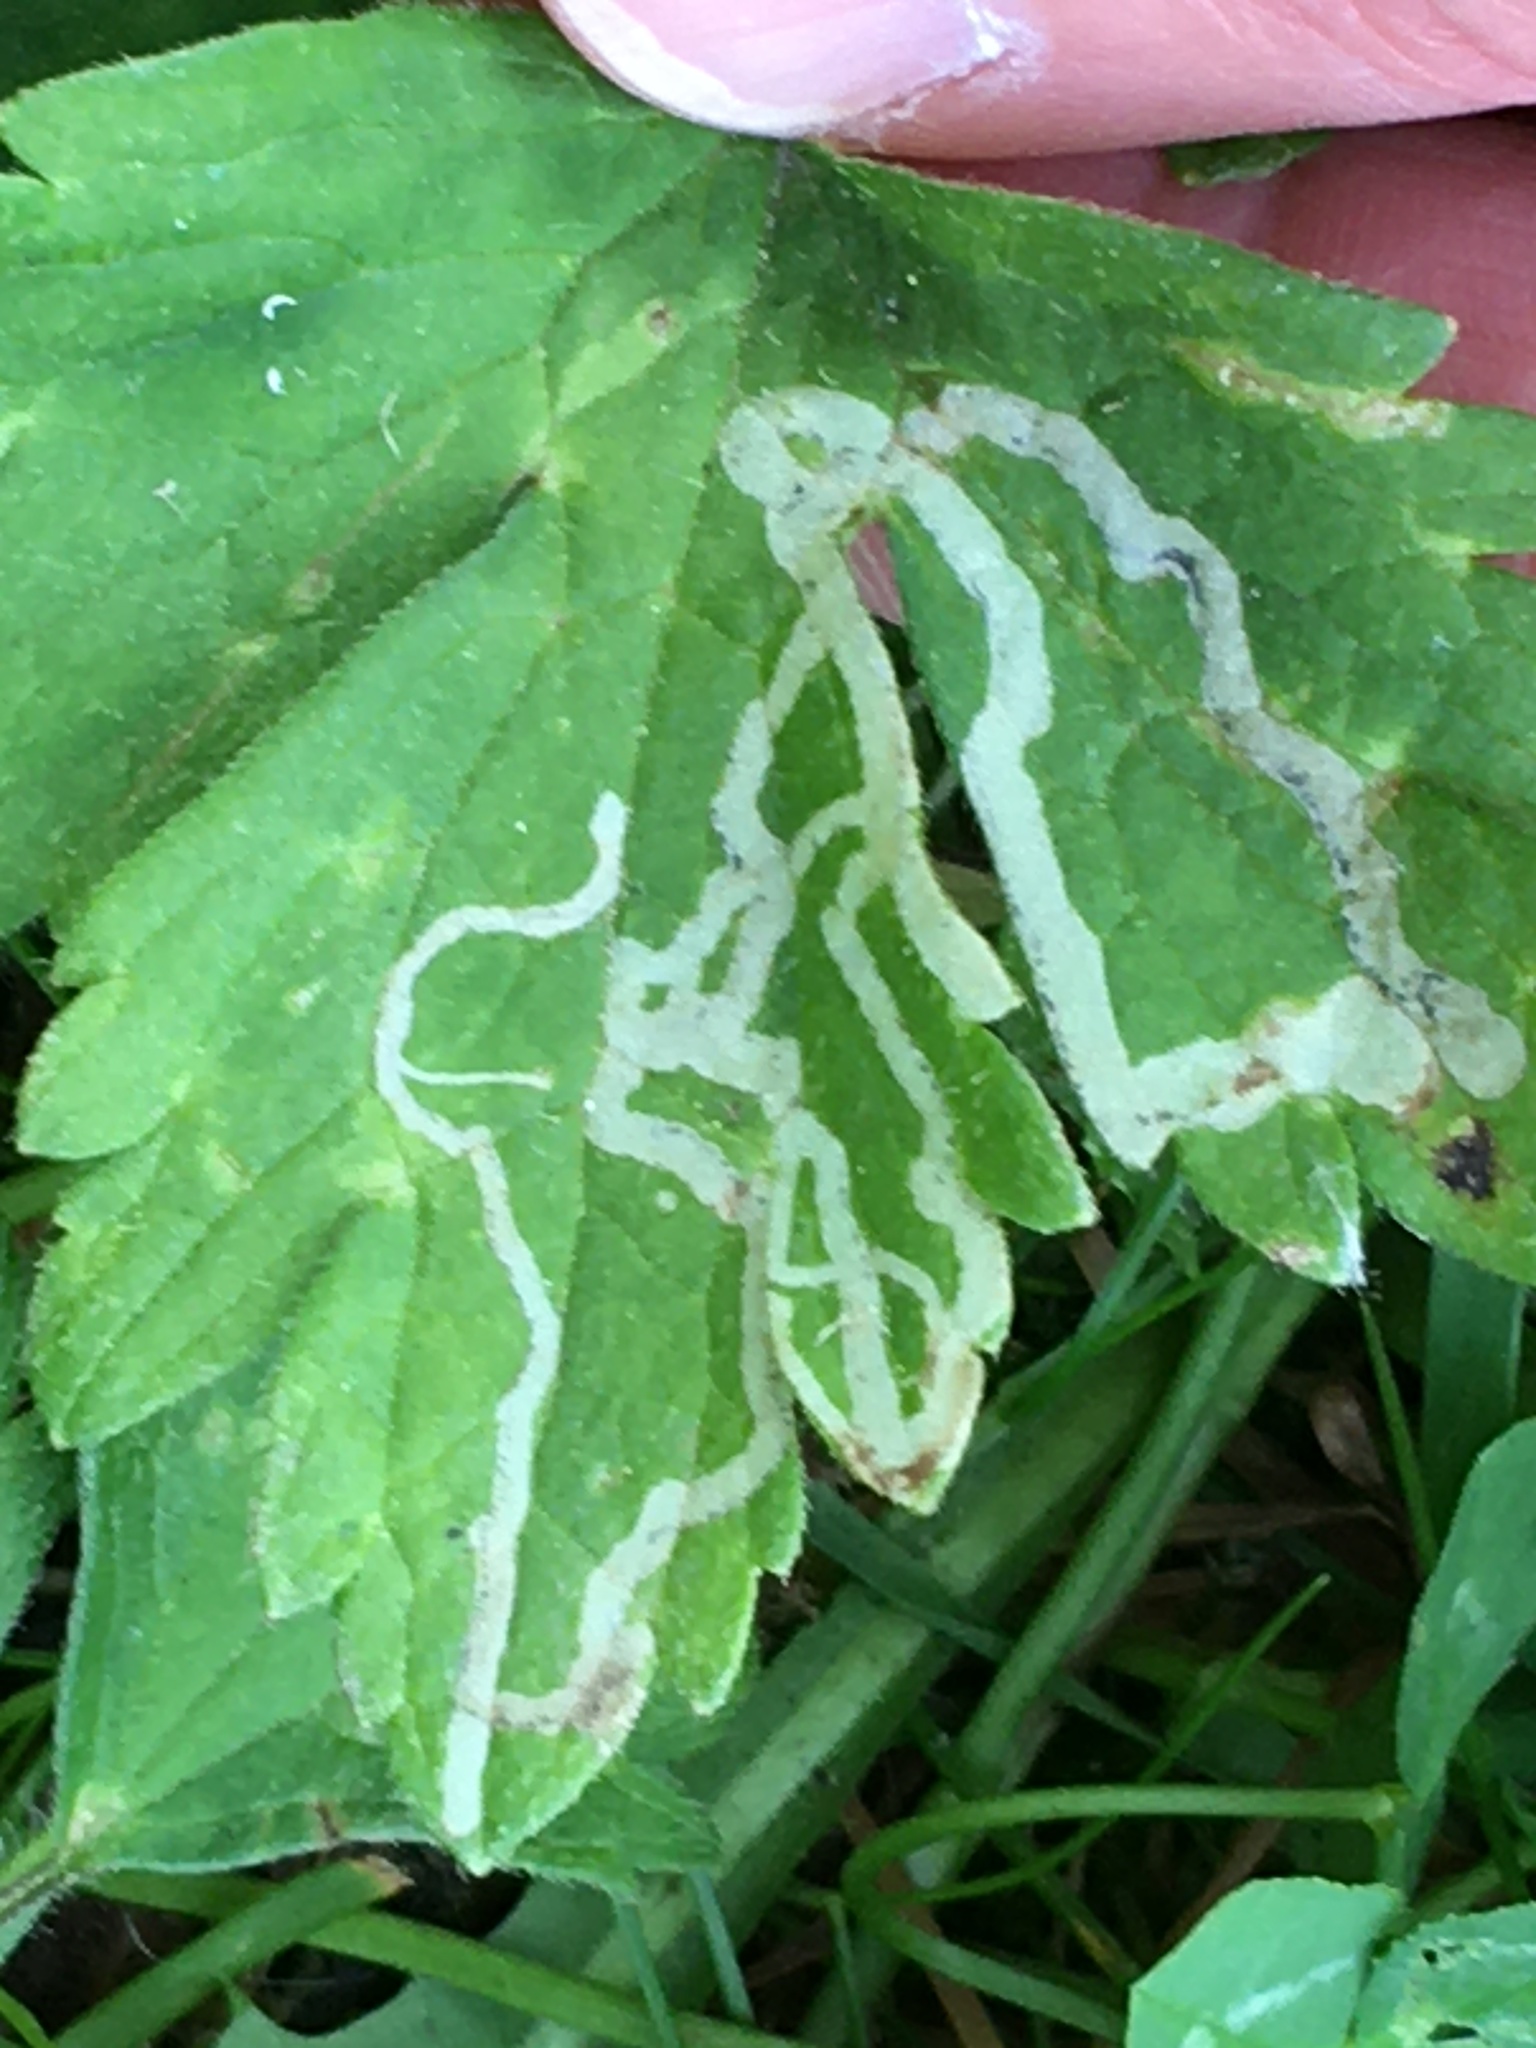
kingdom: Animalia
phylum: Arthropoda
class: Insecta
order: Diptera
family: Agromyzidae
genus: Phytomyza
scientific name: Phytomyza ranunculi
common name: Leaf-miner fly
